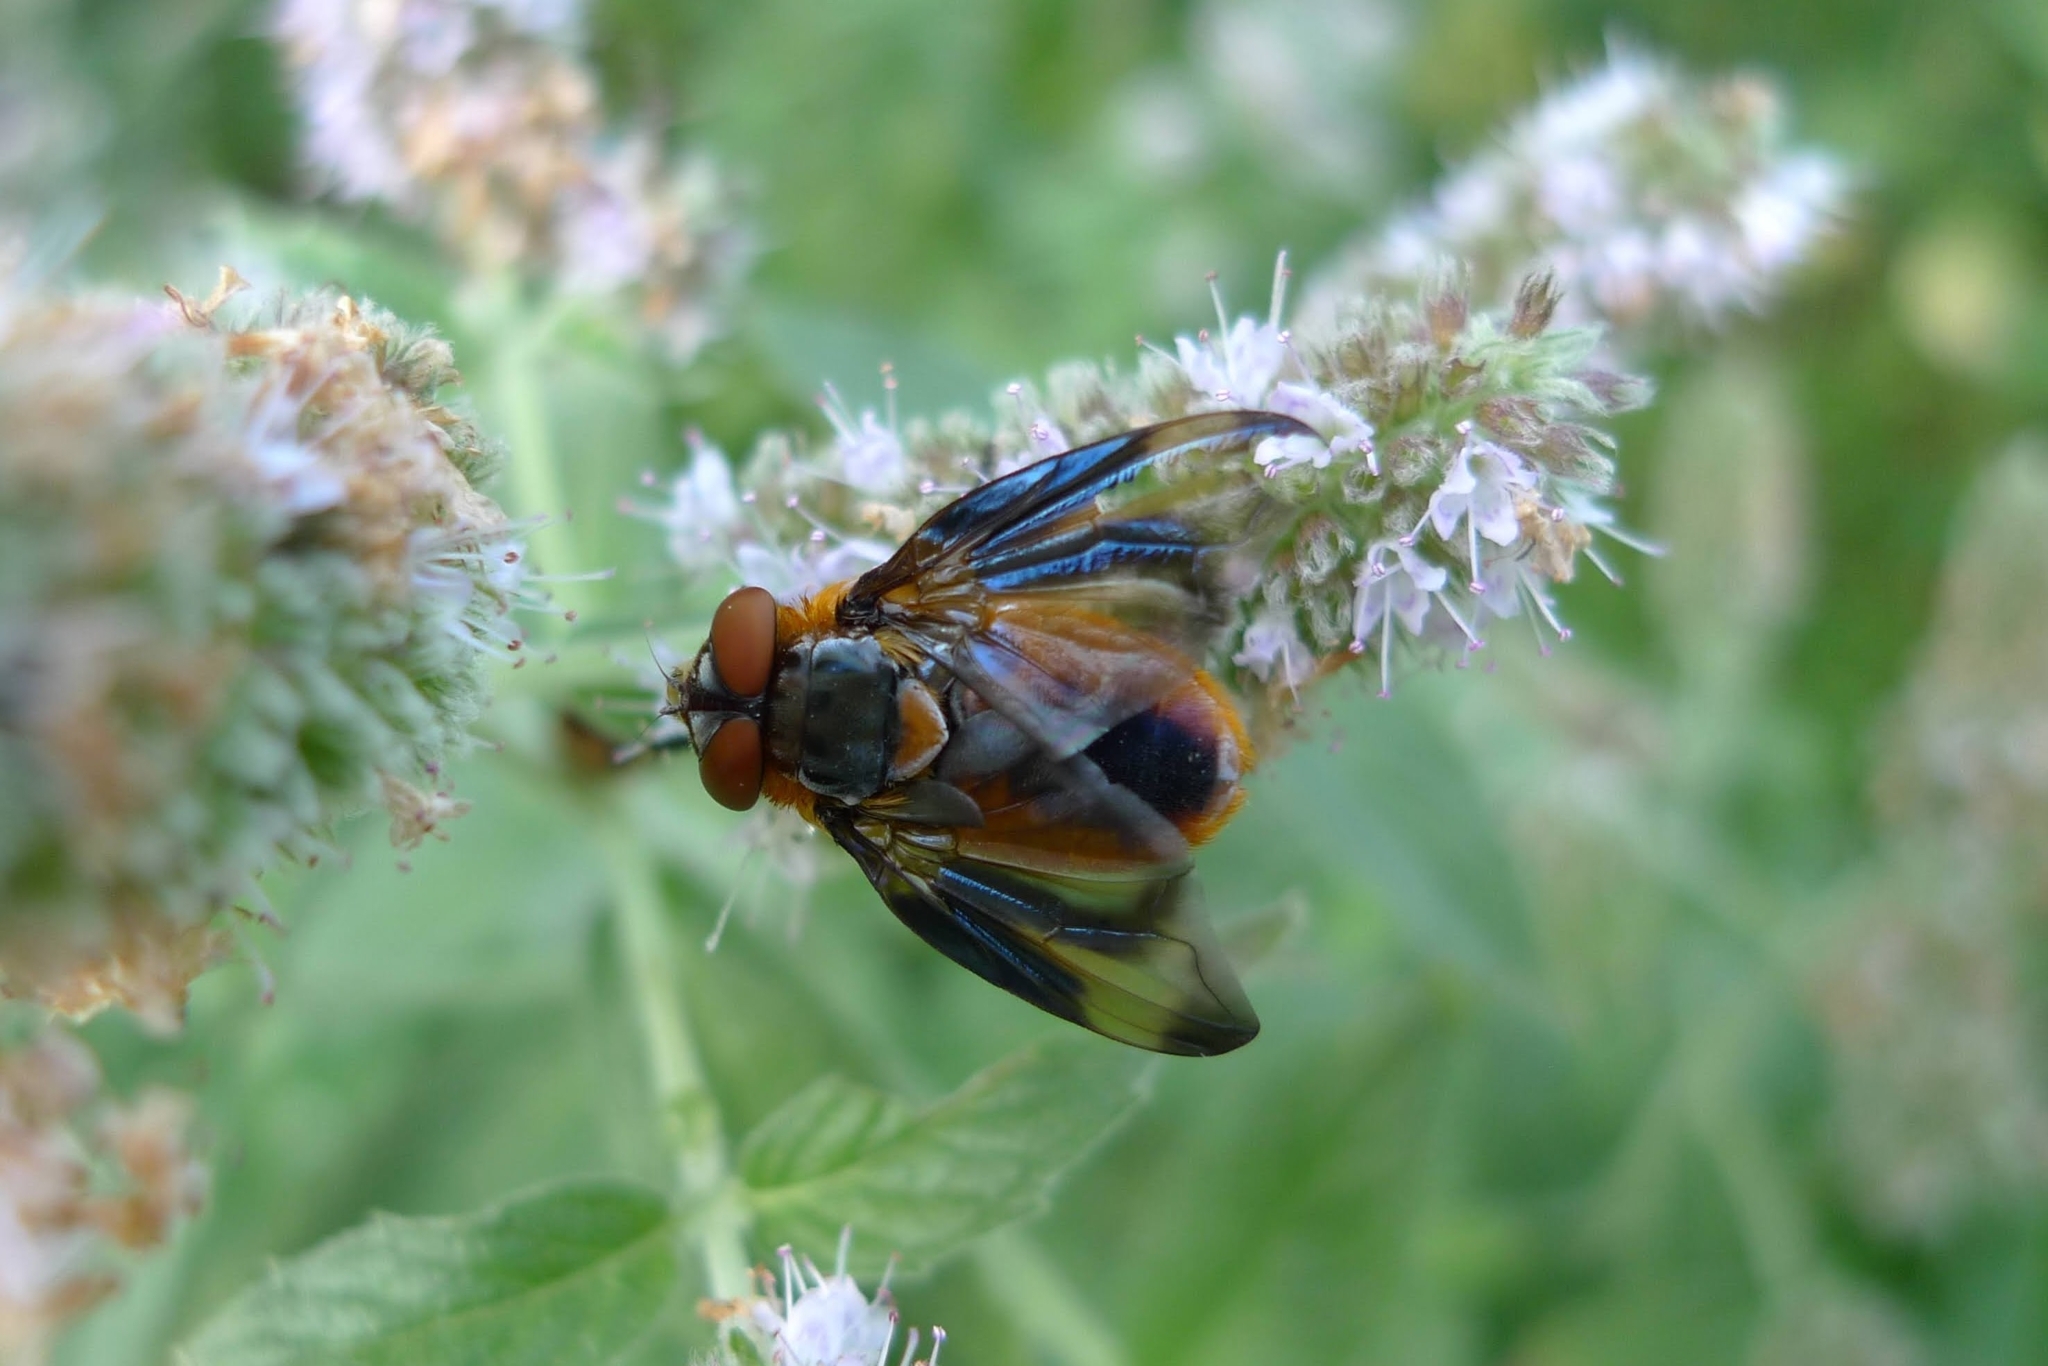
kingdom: Animalia
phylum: Arthropoda
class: Insecta
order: Diptera
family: Tachinidae
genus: Phasia
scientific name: Phasia hemiptera
